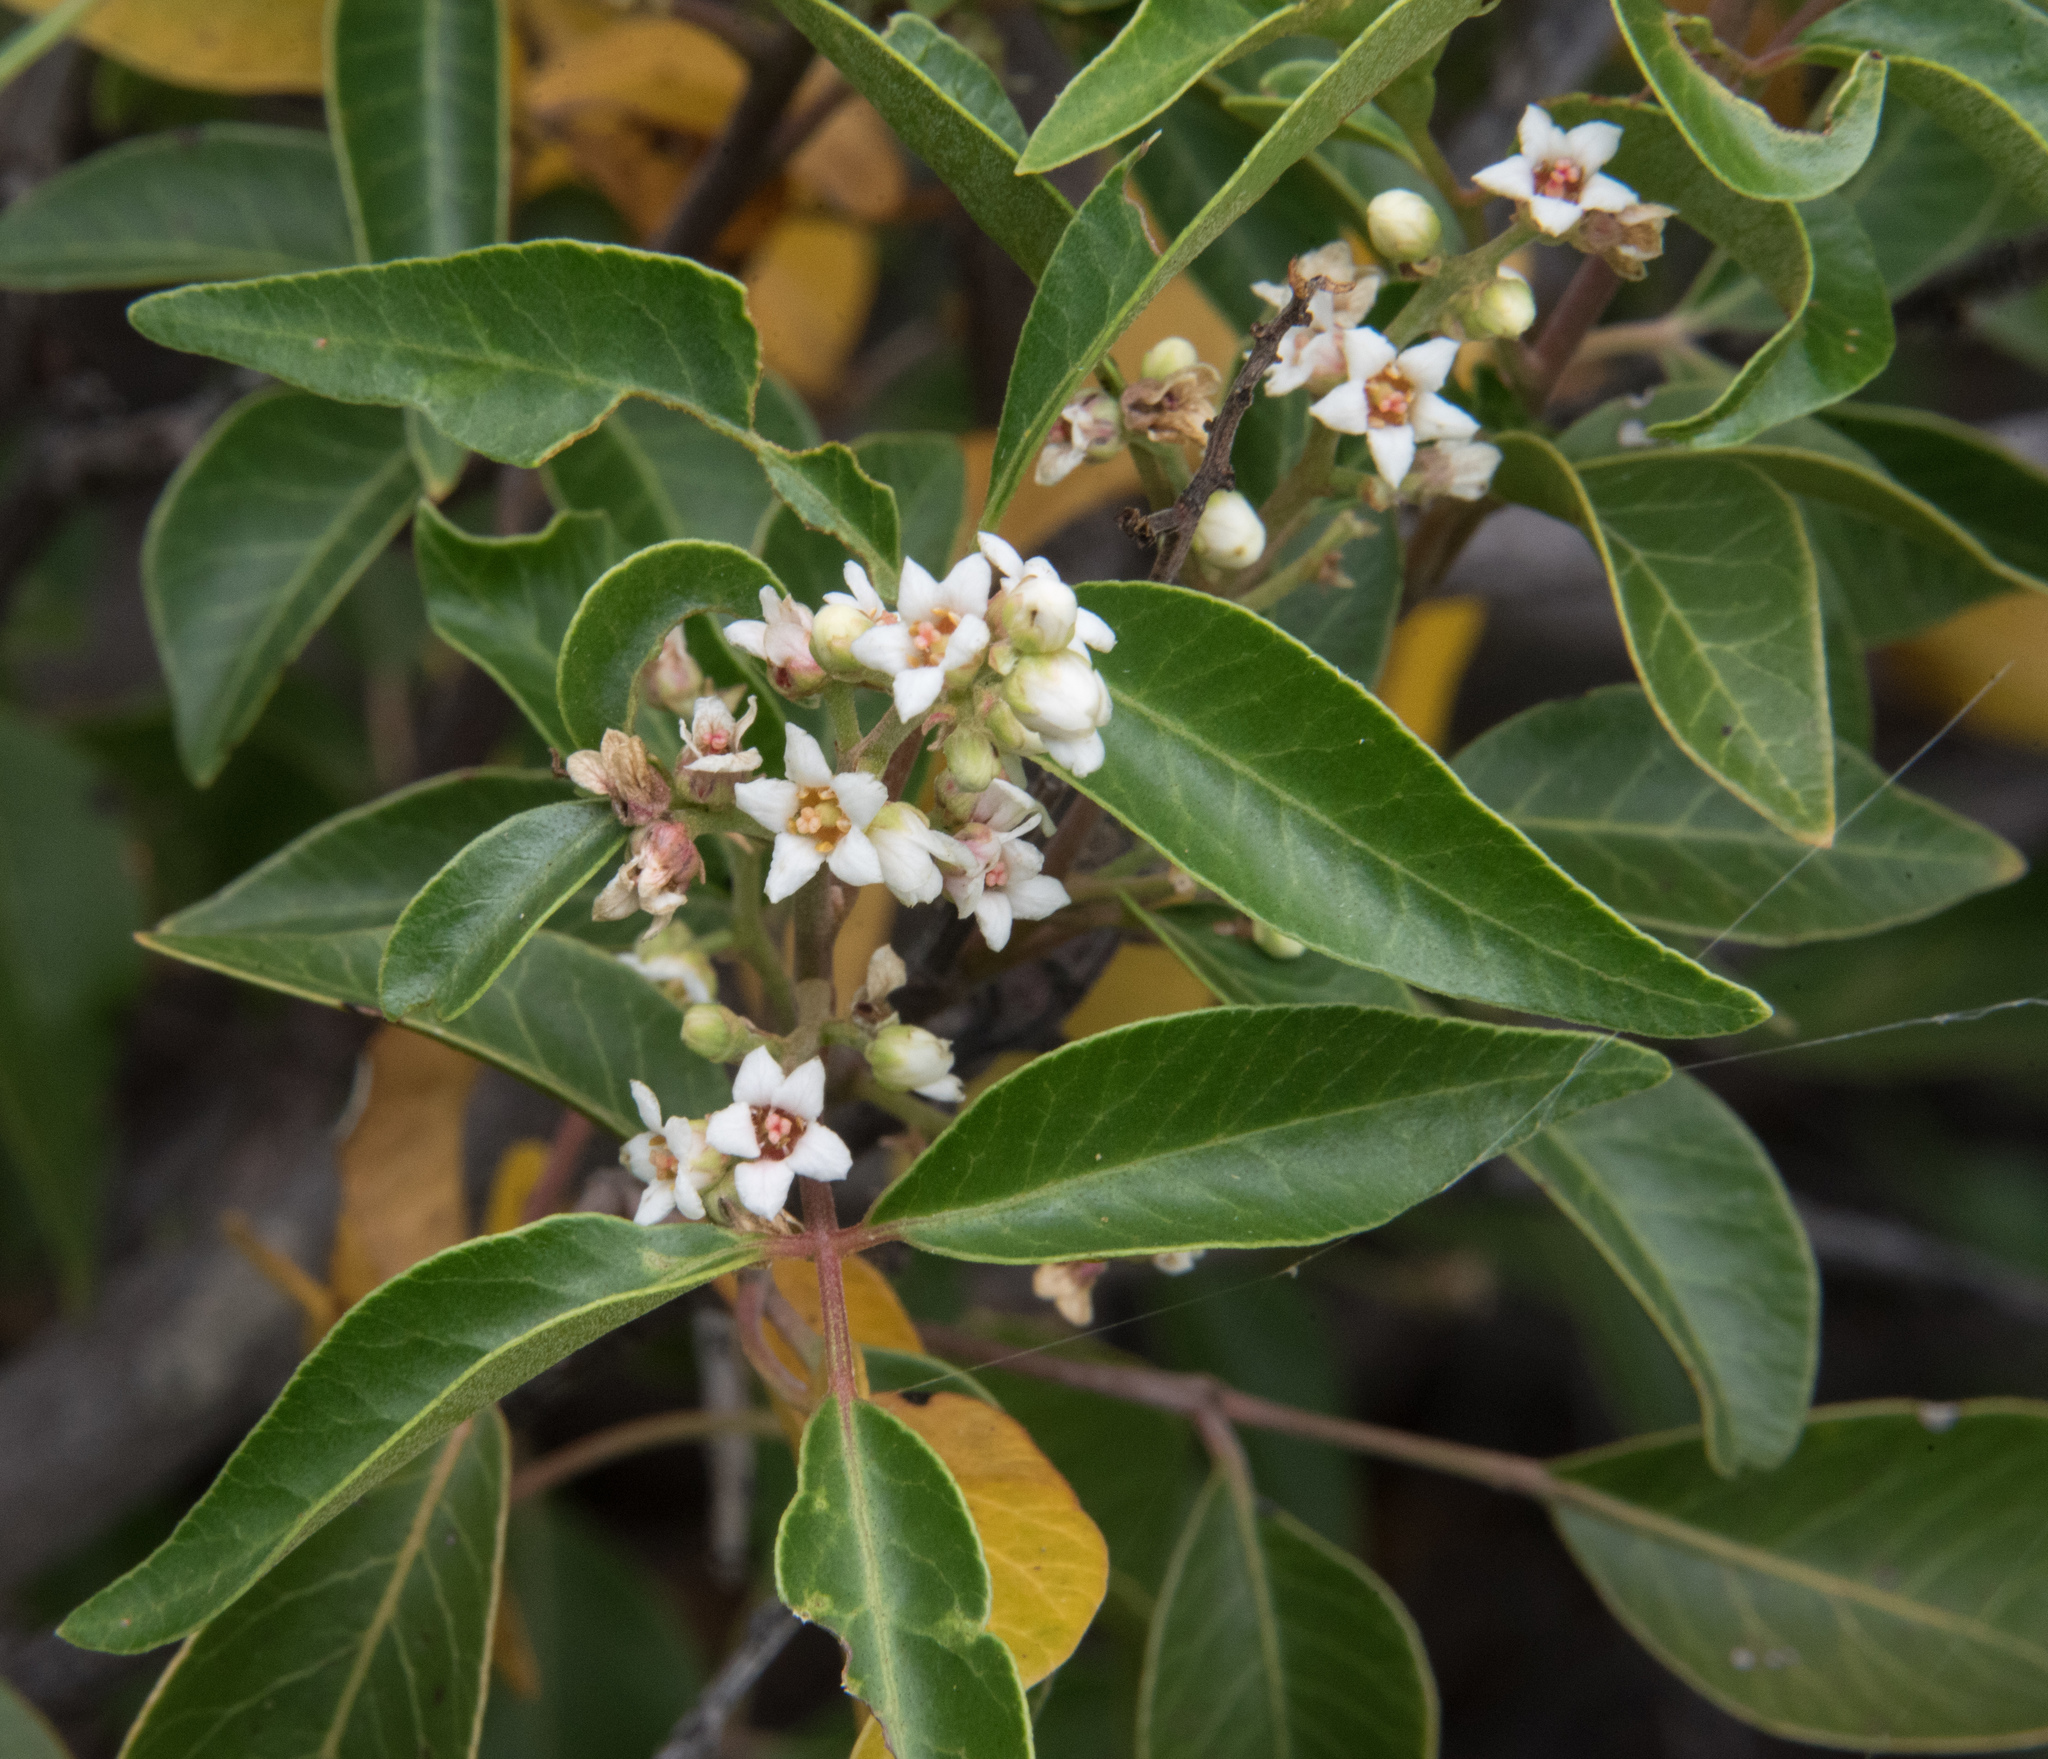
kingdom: Plantae
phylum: Tracheophyta
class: Magnoliopsida
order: Sapindales
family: Anacardiaceae
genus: Rhus
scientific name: Rhus virens
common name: Evergreen sumac
